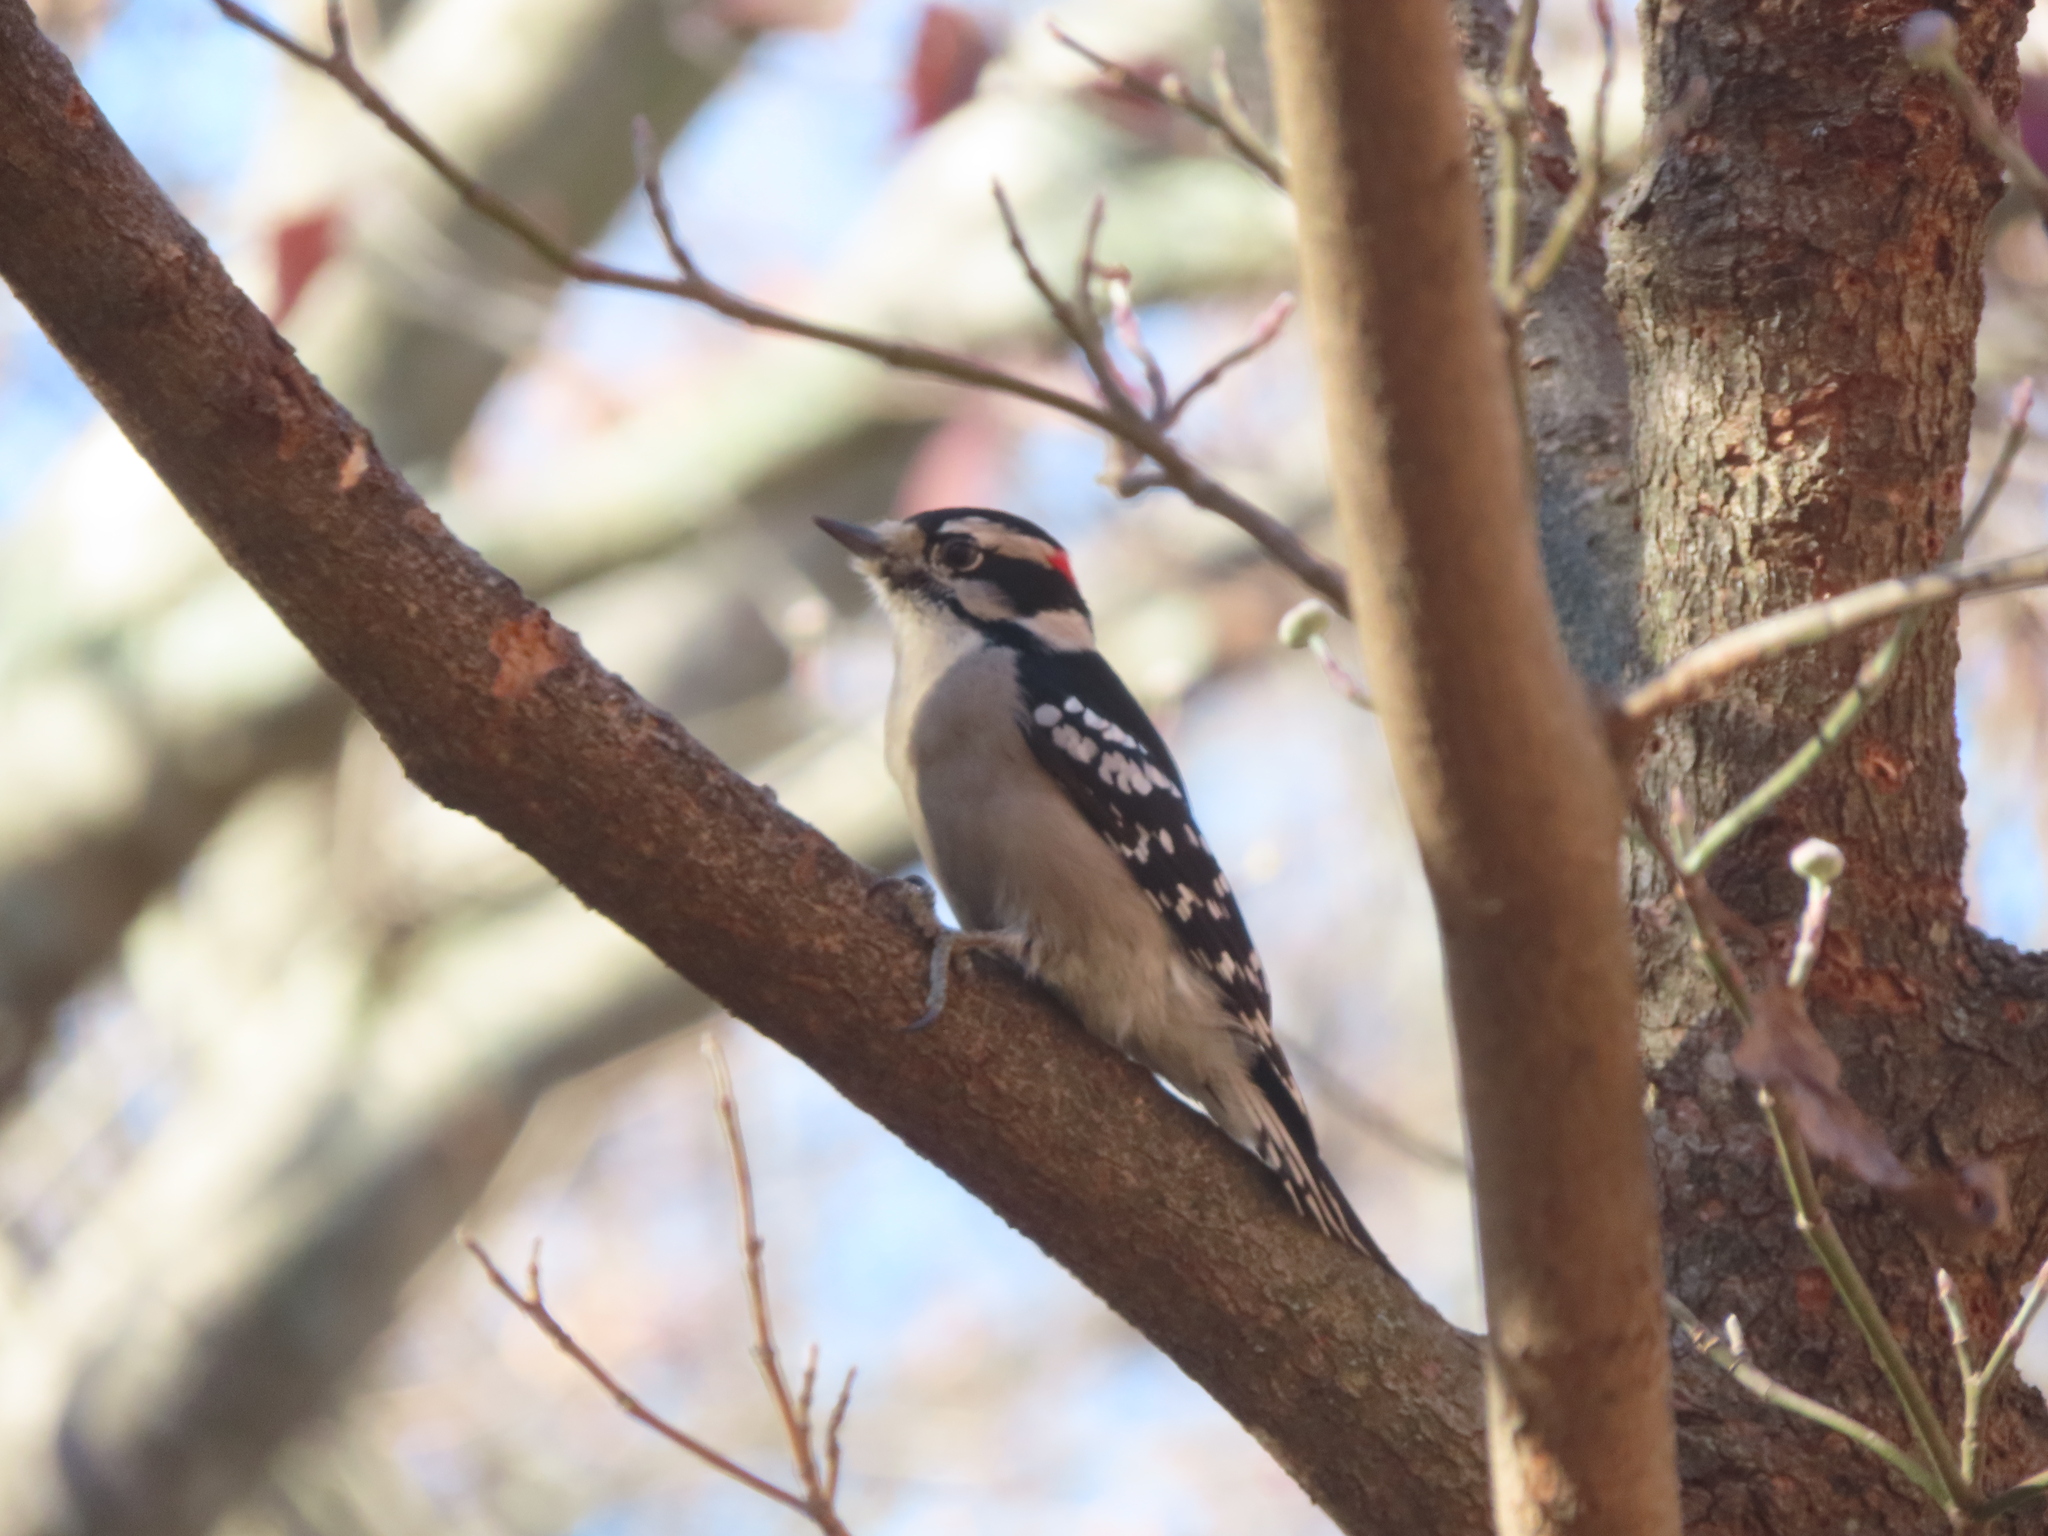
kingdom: Animalia
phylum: Chordata
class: Aves
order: Piciformes
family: Picidae
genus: Dryobates
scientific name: Dryobates pubescens
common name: Downy woodpecker
